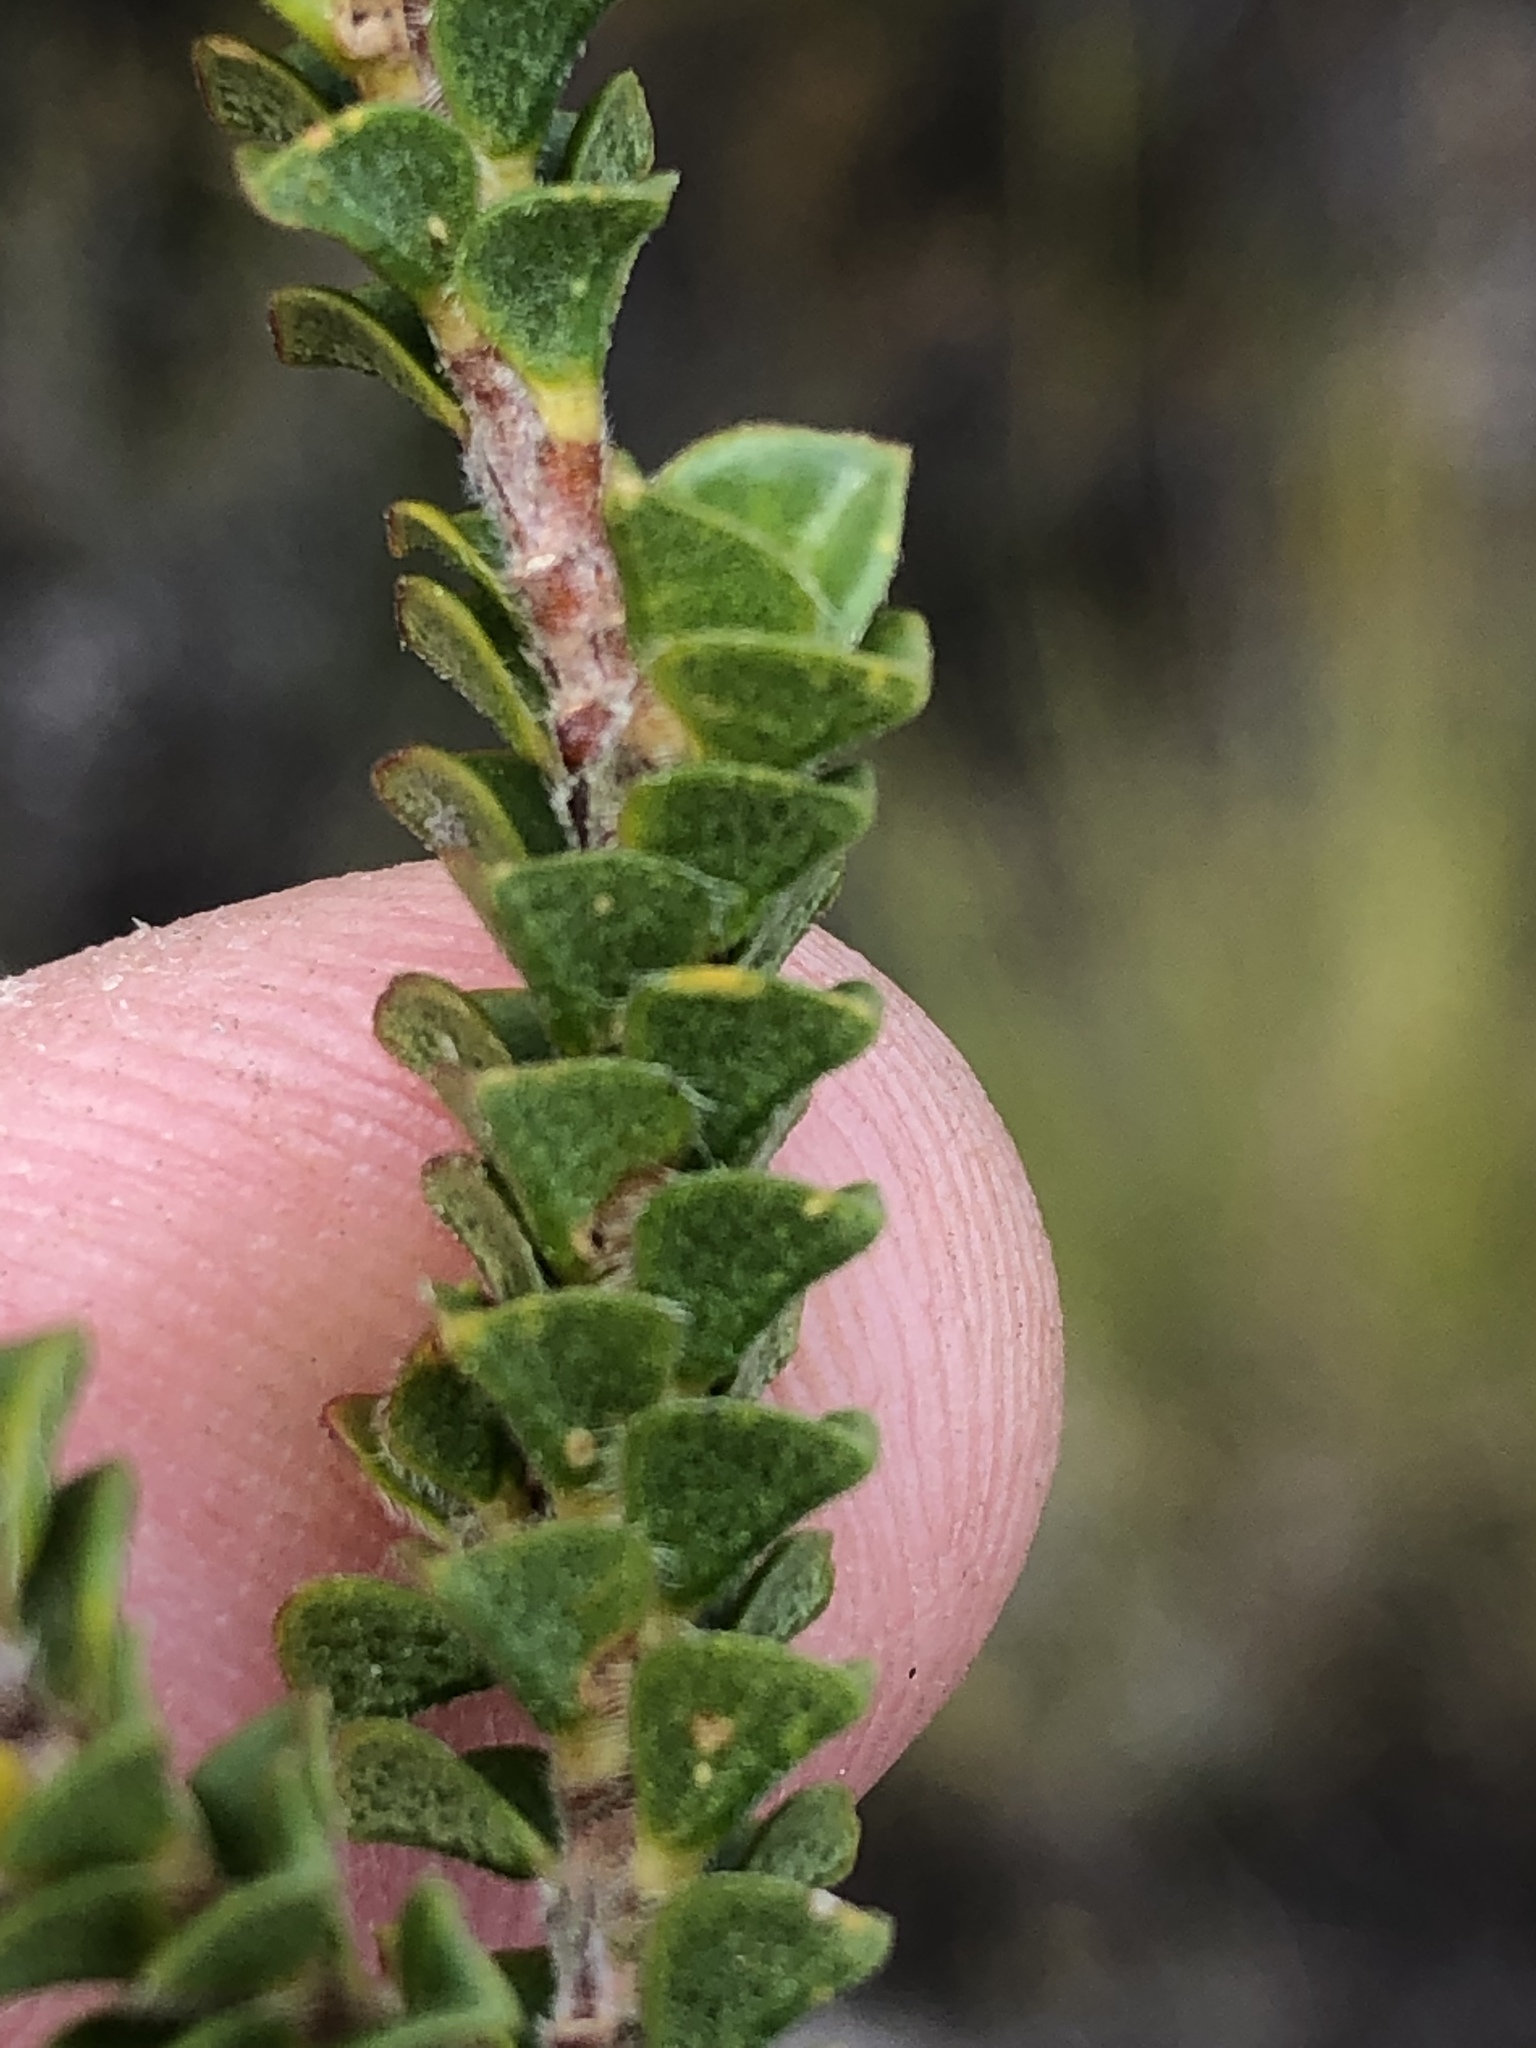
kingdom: Plantae
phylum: Tracheophyta
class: Magnoliopsida
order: Sapindales
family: Rutaceae
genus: Acmadenia
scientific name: Acmadenia tetragona
